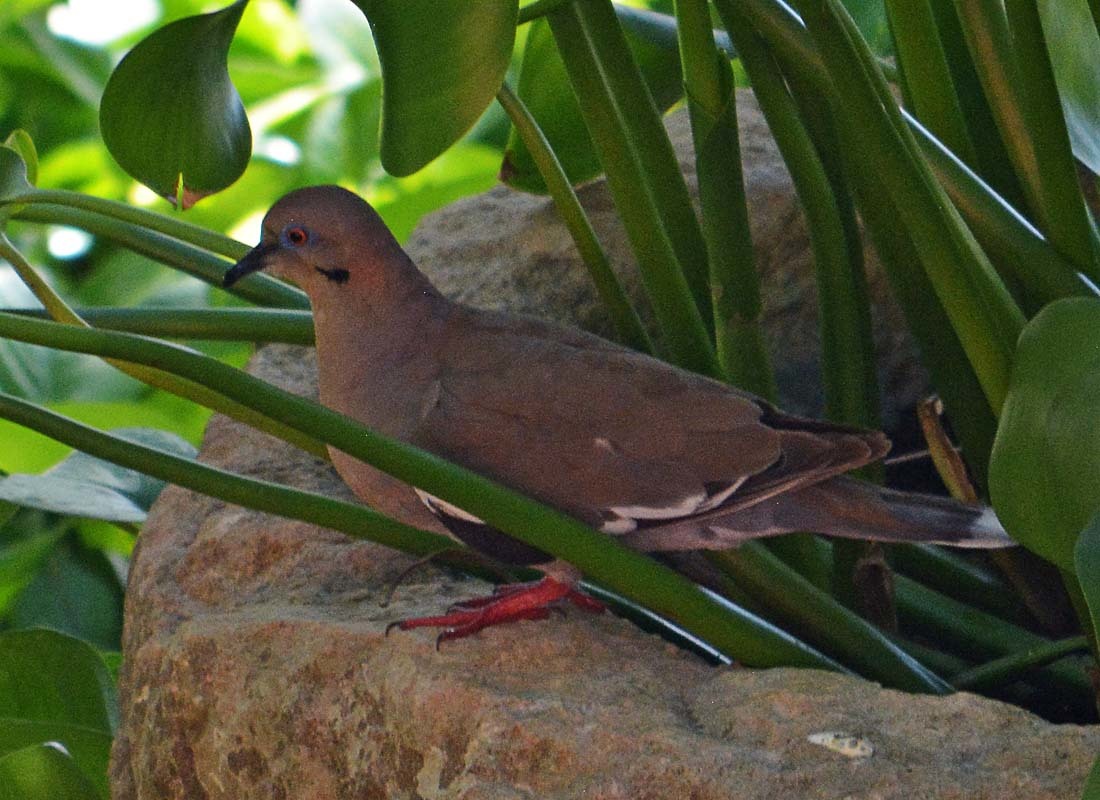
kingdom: Animalia
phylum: Chordata
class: Aves
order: Columbiformes
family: Columbidae
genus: Zenaida
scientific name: Zenaida asiatica
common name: White-winged dove
